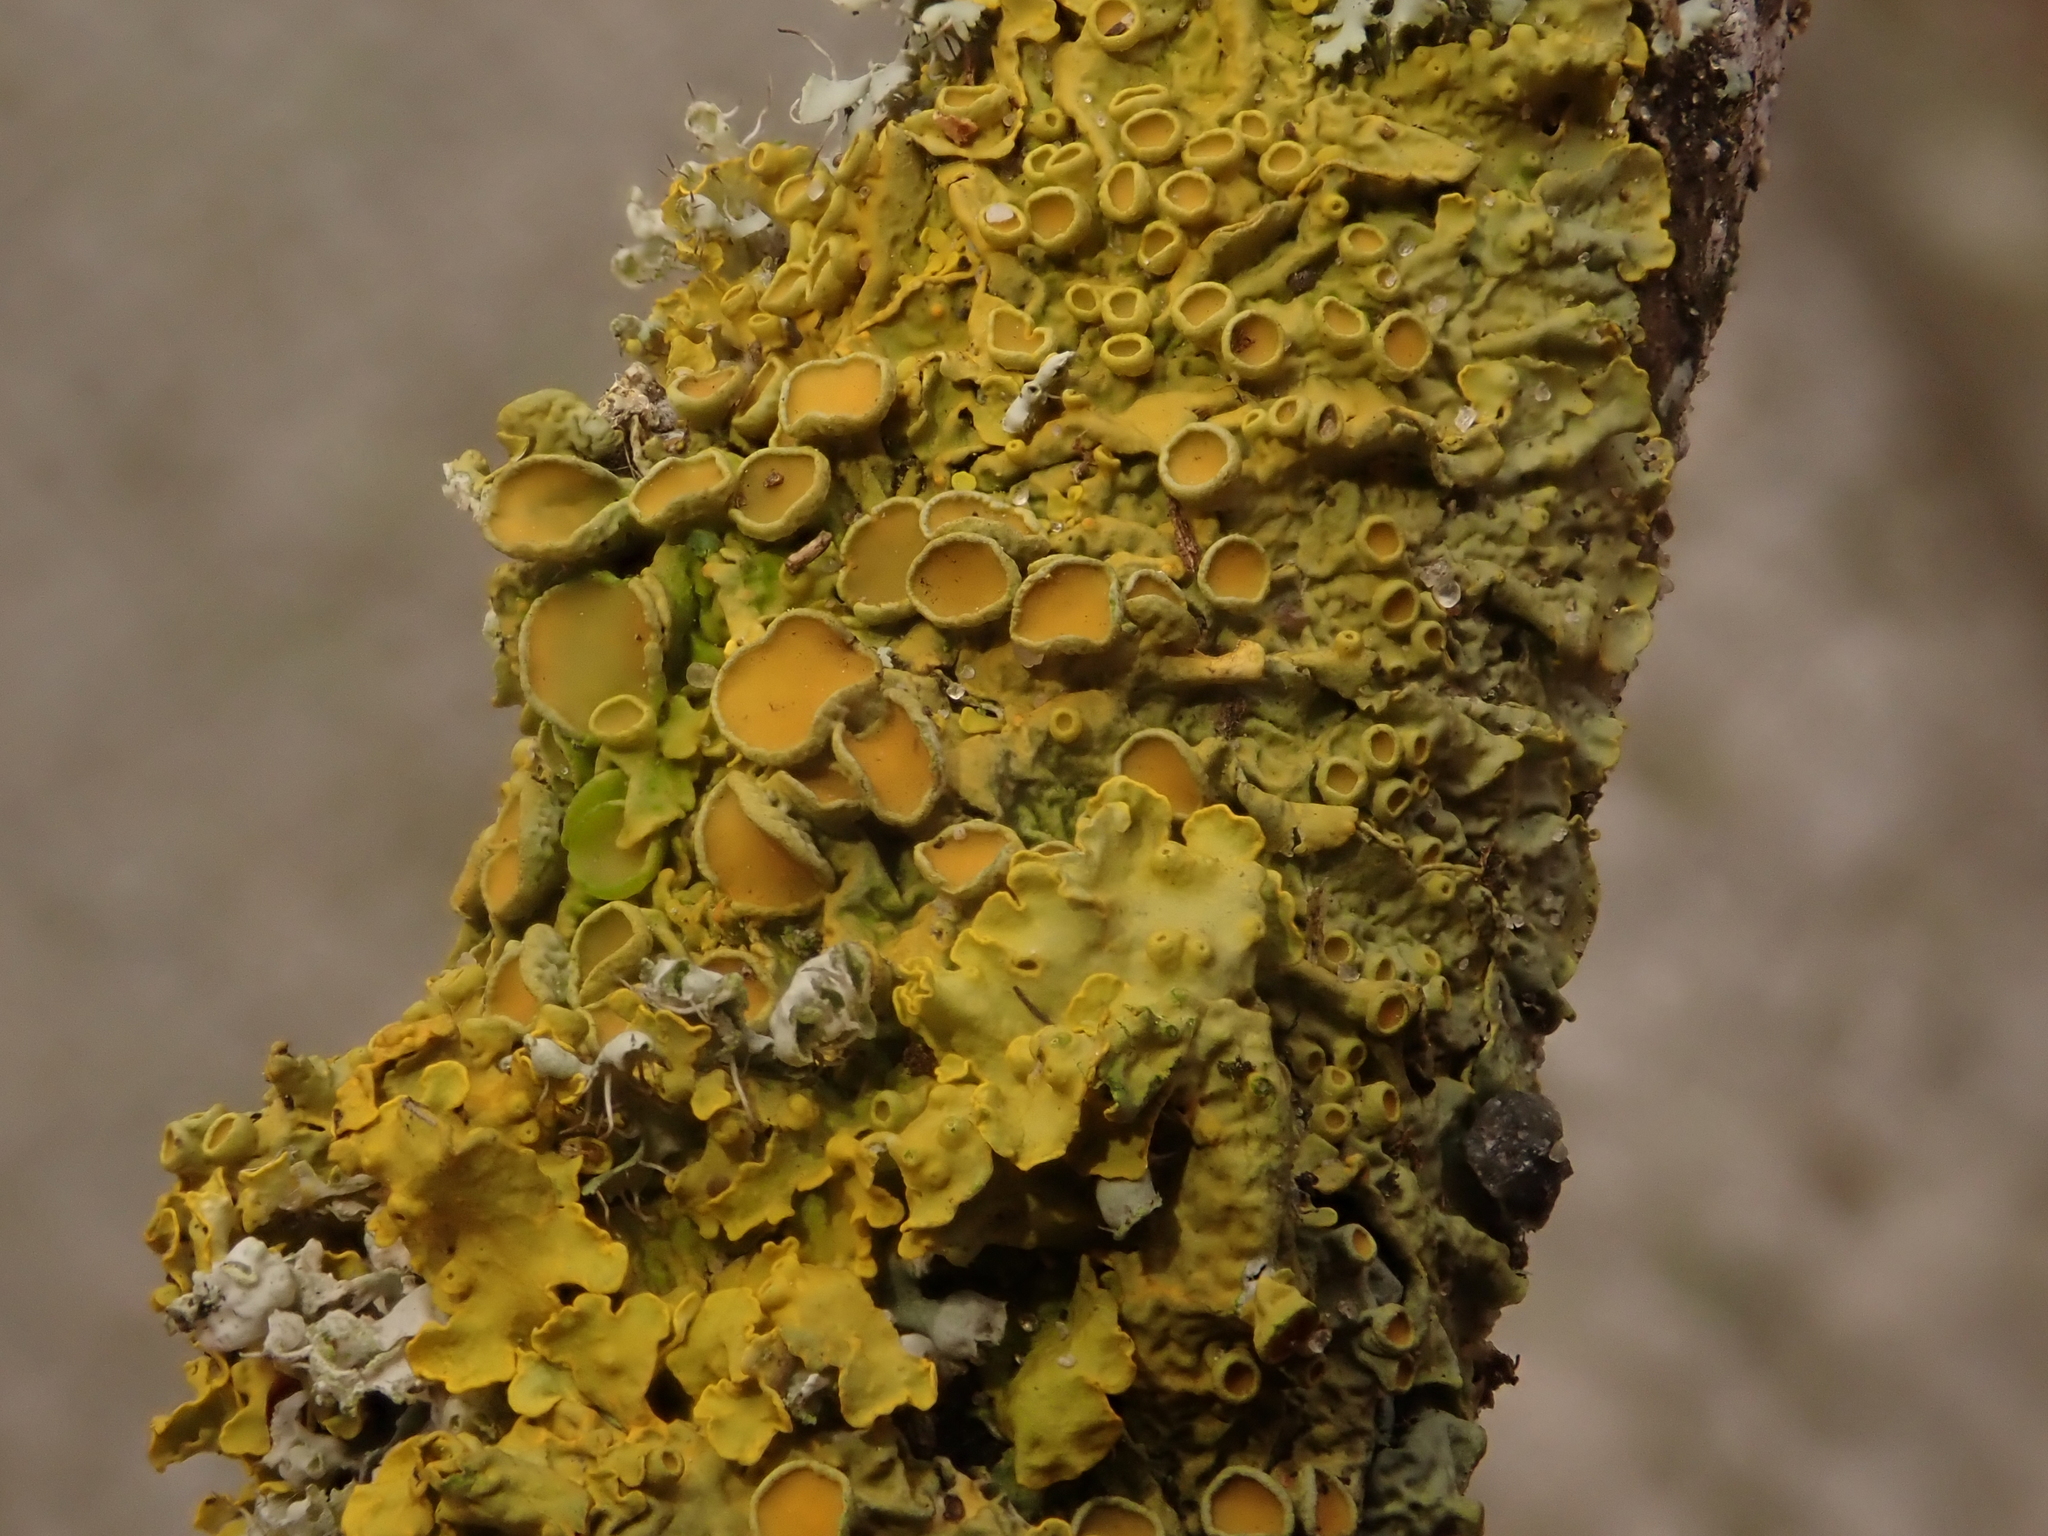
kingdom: Fungi
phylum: Ascomycota
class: Lecanoromycetes
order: Teloschistales
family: Teloschistaceae
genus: Xanthoria
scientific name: Xanthoria parietina
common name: Common orange lichen
